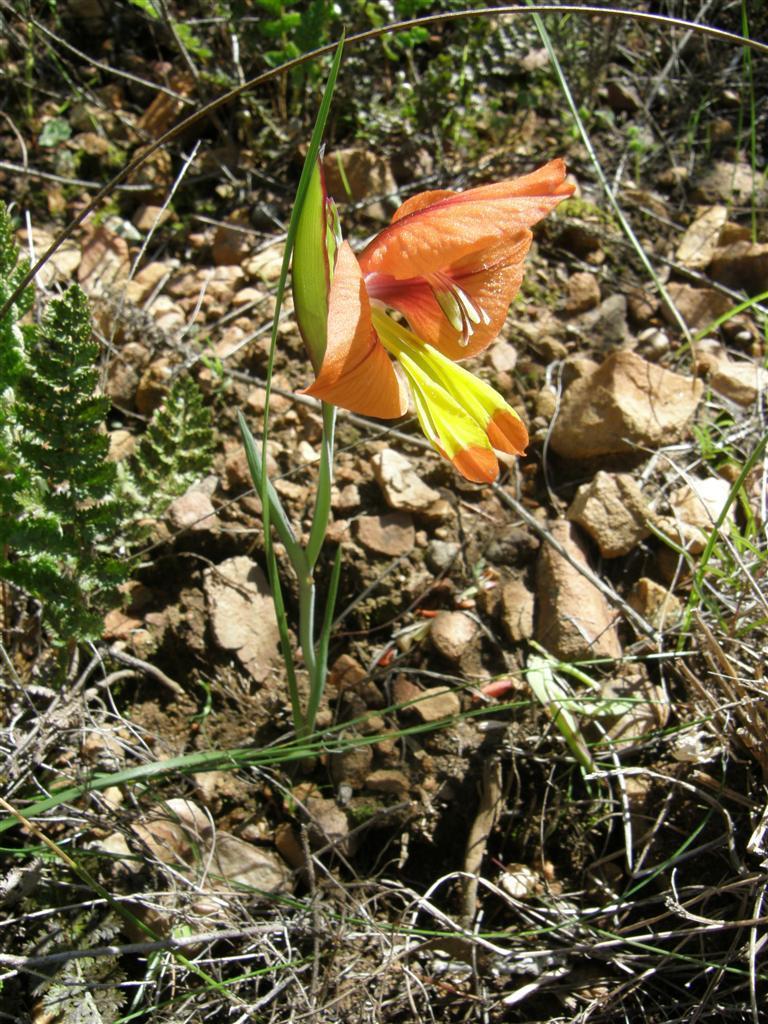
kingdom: Plantae
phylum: Tracheophyta
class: Liliopsida
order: Asparagales
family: Iridaceae
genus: Gladiolus
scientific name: Gladiolus alatus
